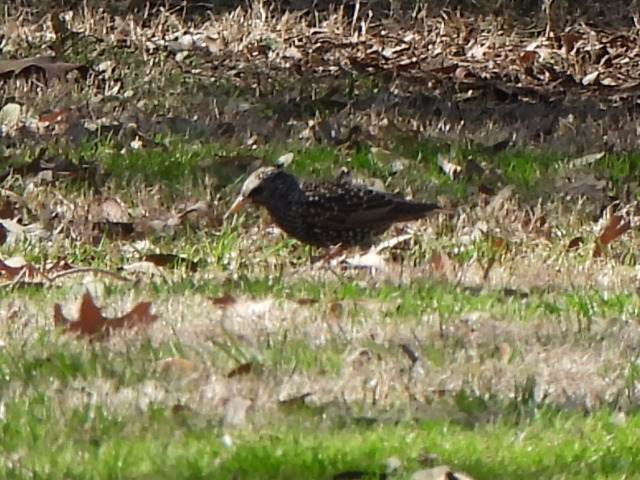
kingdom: Animalia
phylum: Chordata
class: Aves
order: Passeriformes
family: Sturnidae
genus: Sturnus
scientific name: Sturnus vulgaris
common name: Common starling
